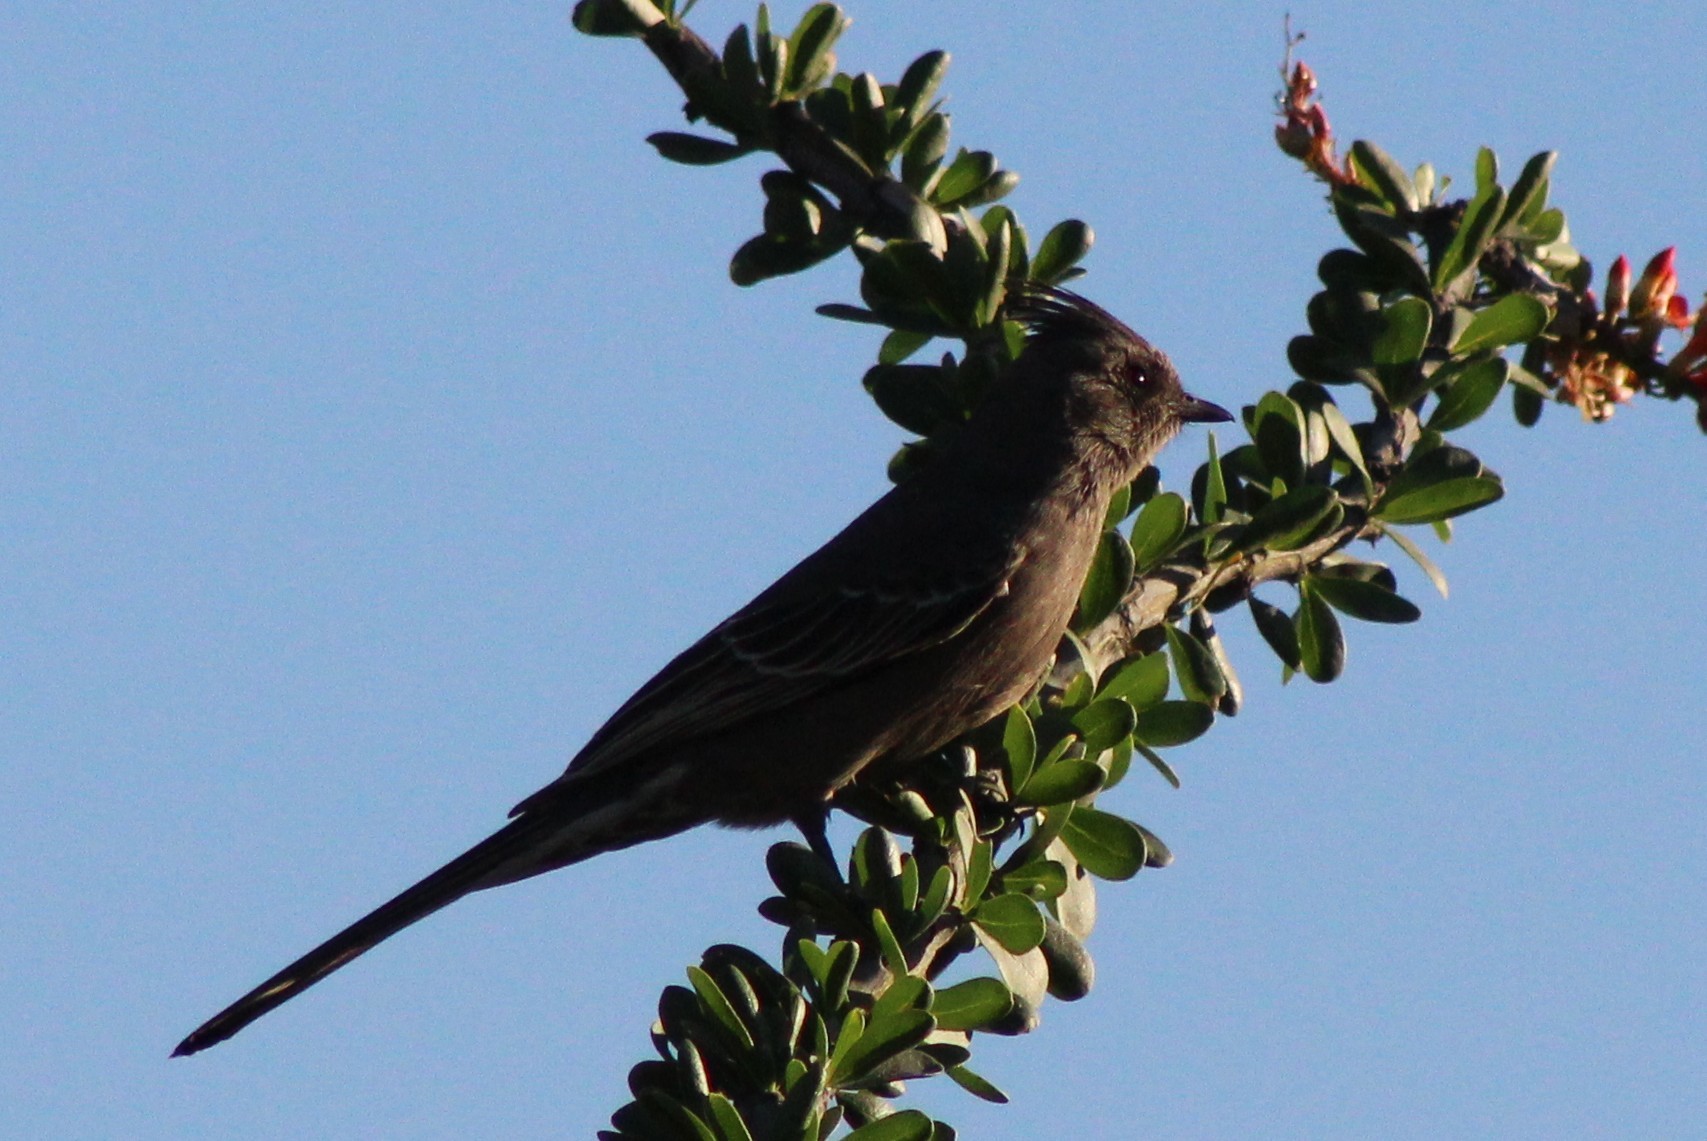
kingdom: Animalia
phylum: Chordata
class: Aves
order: Passeriformes
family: Ptilogonatidae
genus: Phainopepla
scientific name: Phainopepla nitens
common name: Phainopepla
